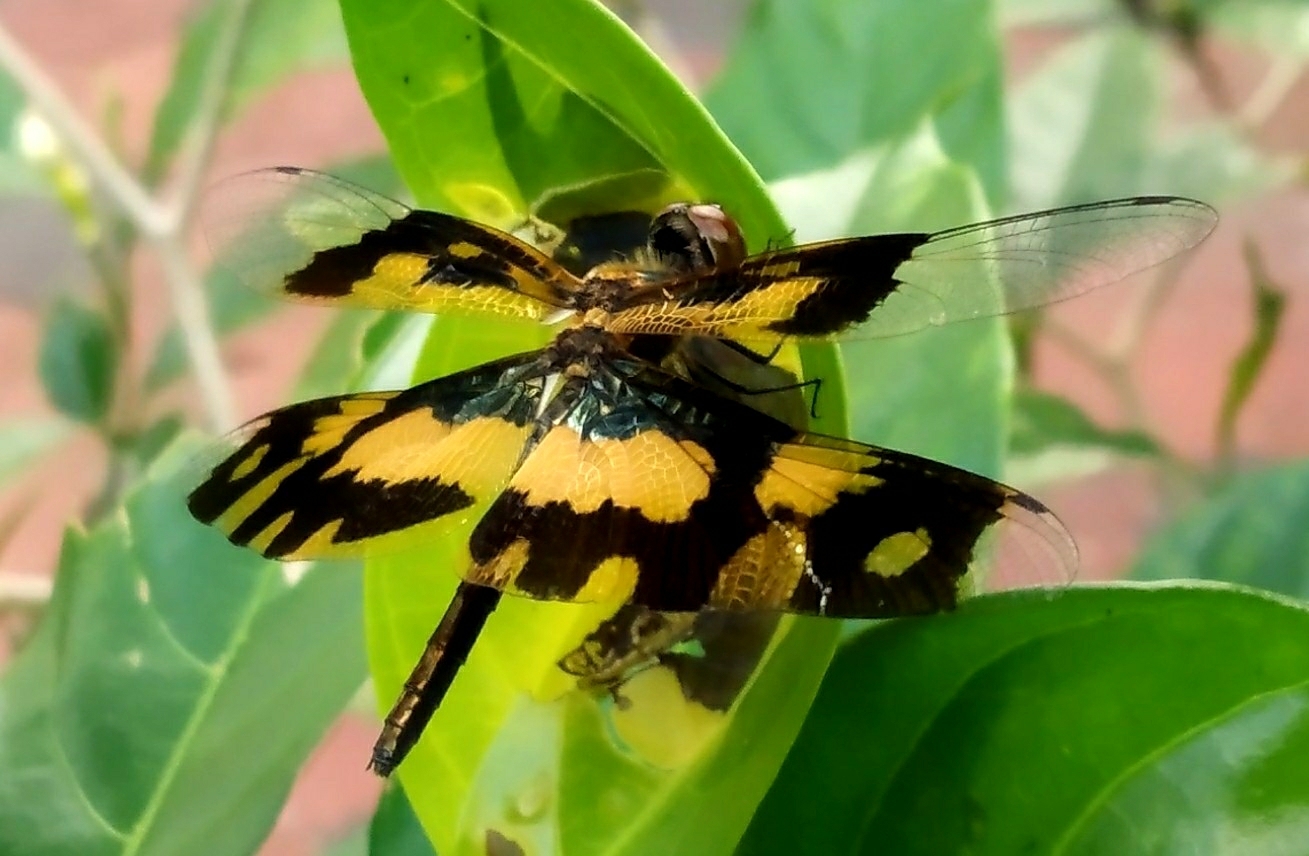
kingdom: Animalia
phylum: Arthropoda
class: Insecta
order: Odonata
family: Libellulidae
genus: Rhyothemis
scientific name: Rhyothemis variegata
